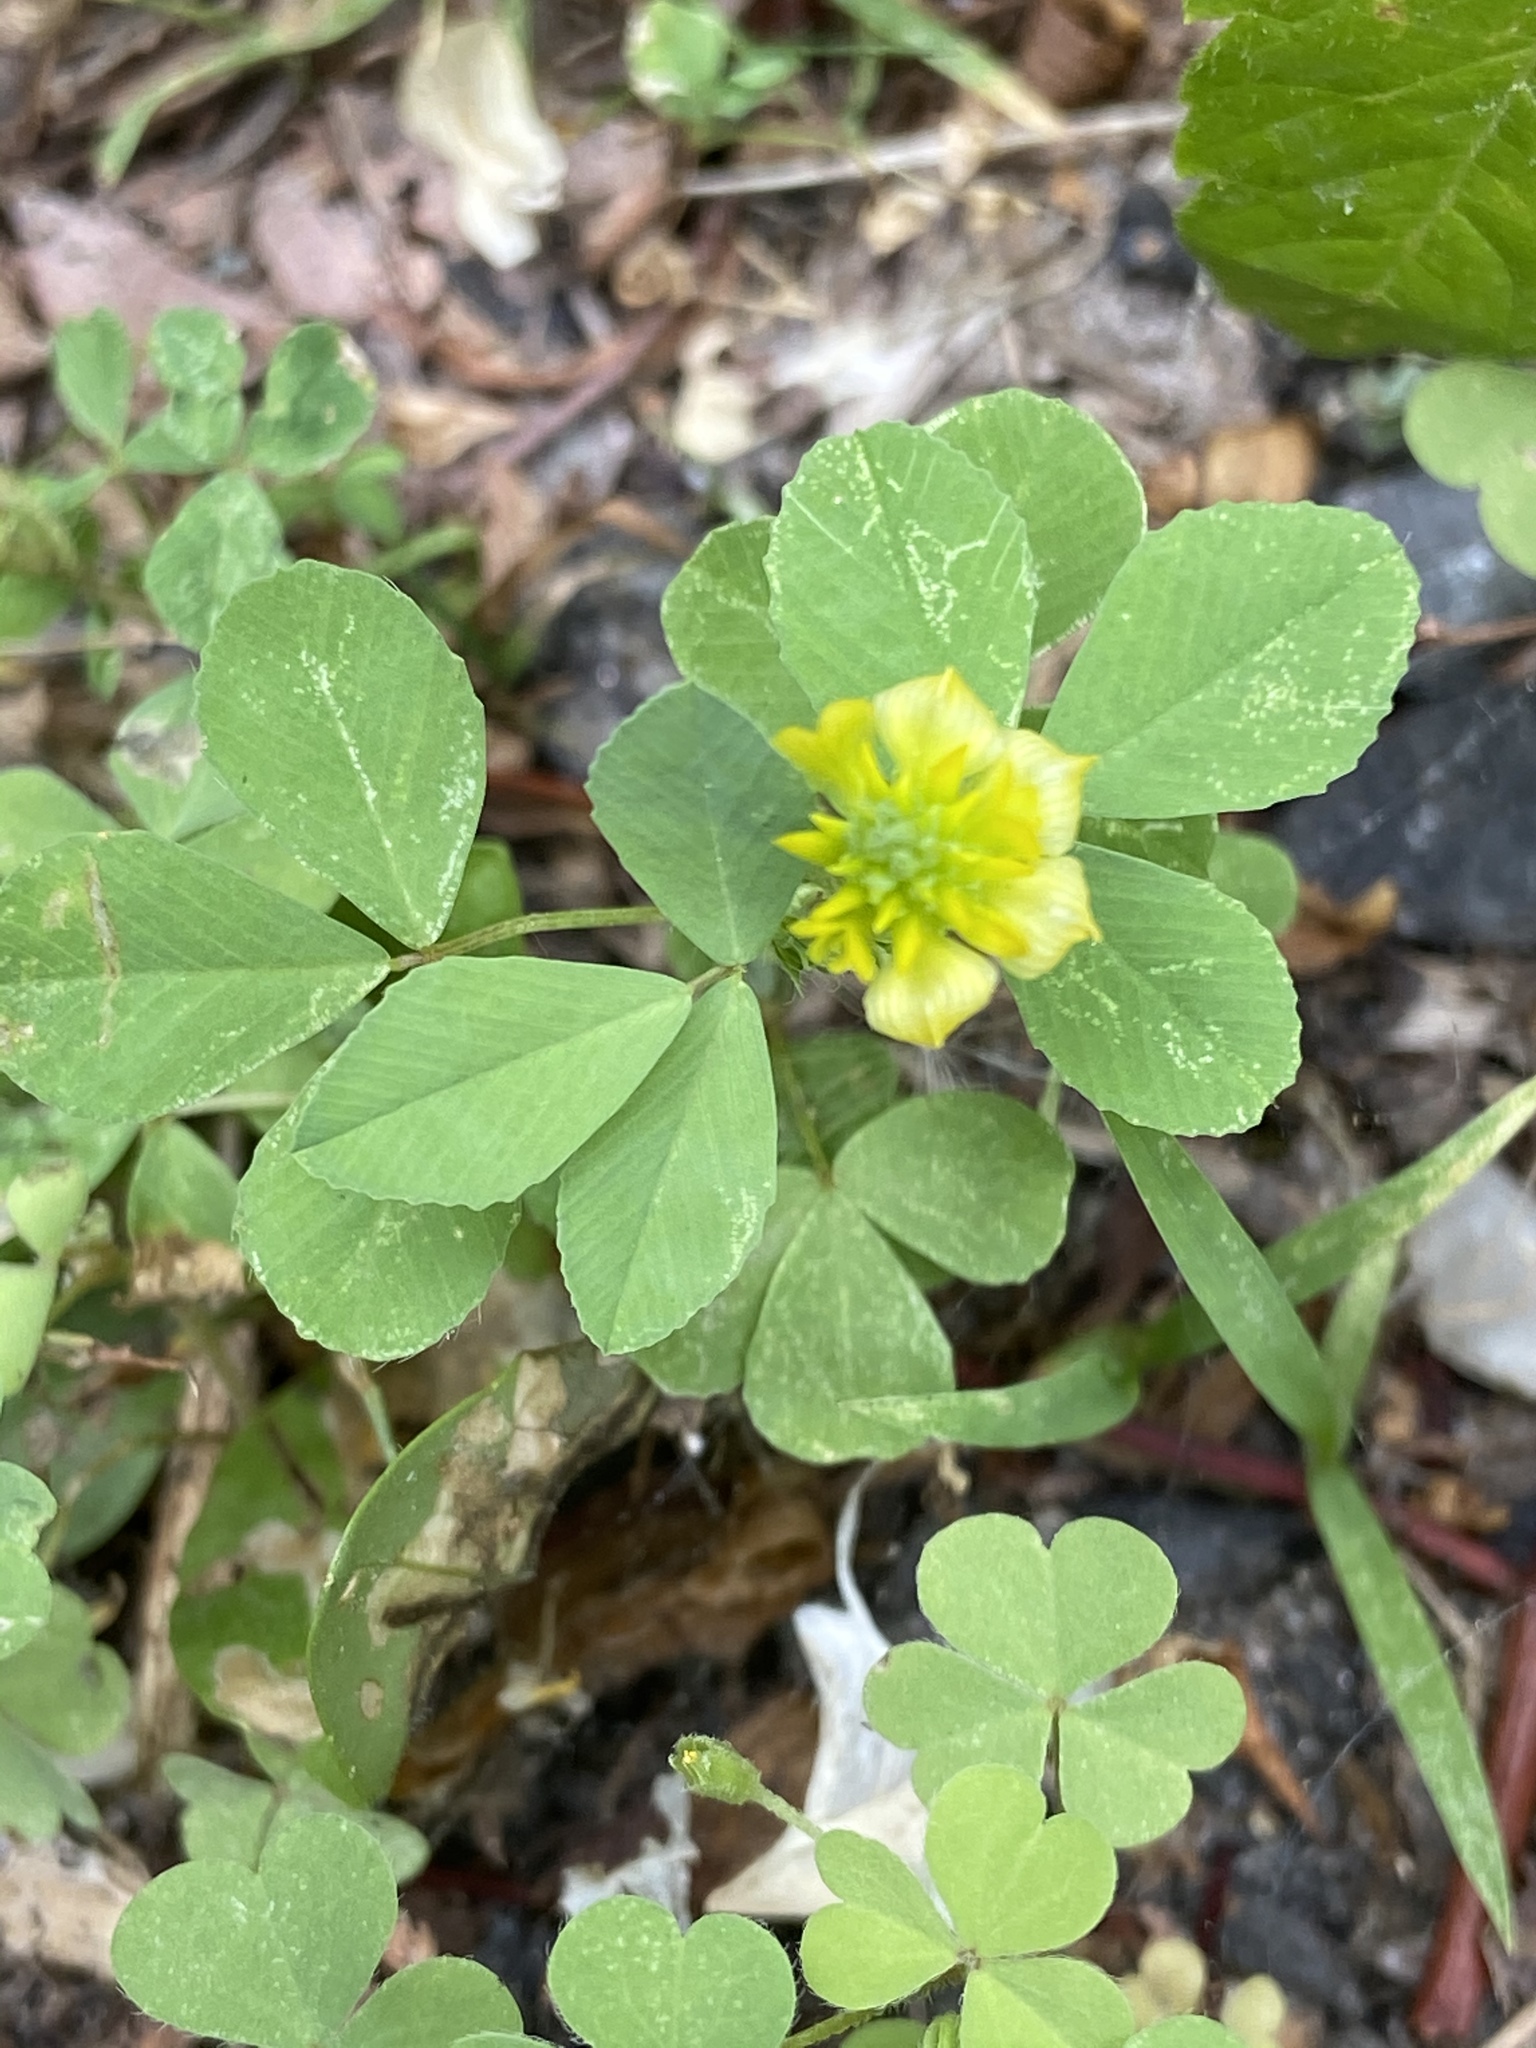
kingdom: Plantae
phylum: Tracheophyta
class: Magnoliopsida
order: Fabales
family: Fabaceae
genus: Trifolium
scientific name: Trifolium campestre
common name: Field clover
